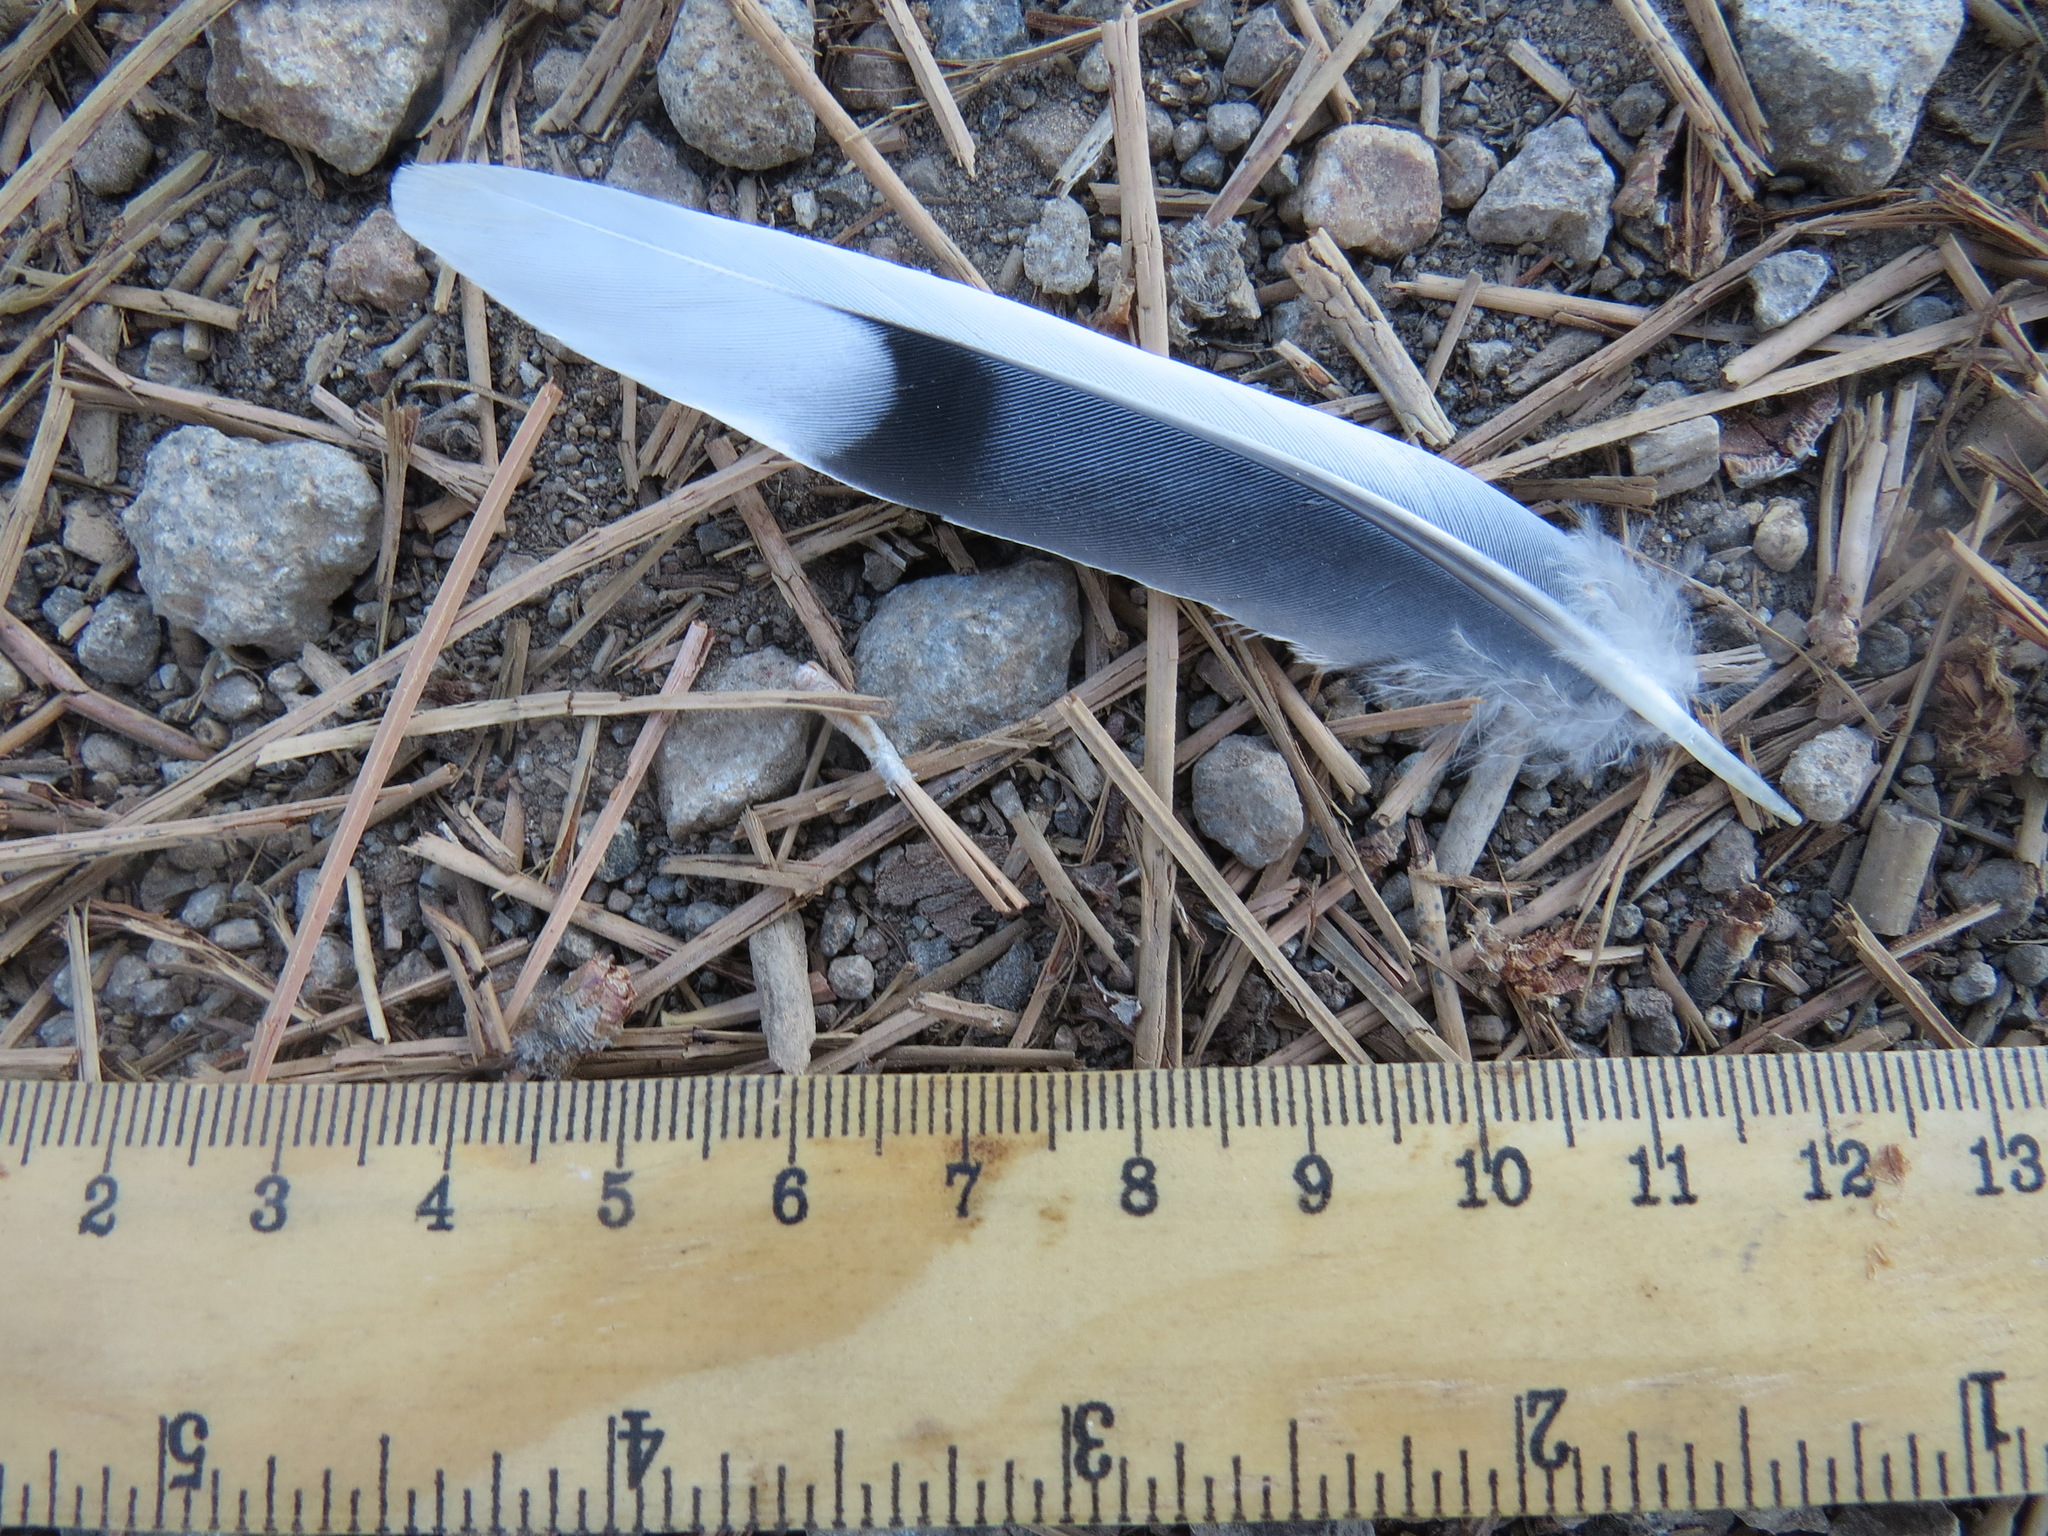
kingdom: Animalia
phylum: Chordata
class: Aves
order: Columbiformes
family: Columbidae
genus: Zenaida
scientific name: Zenaida macroura
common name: Mourning dove
